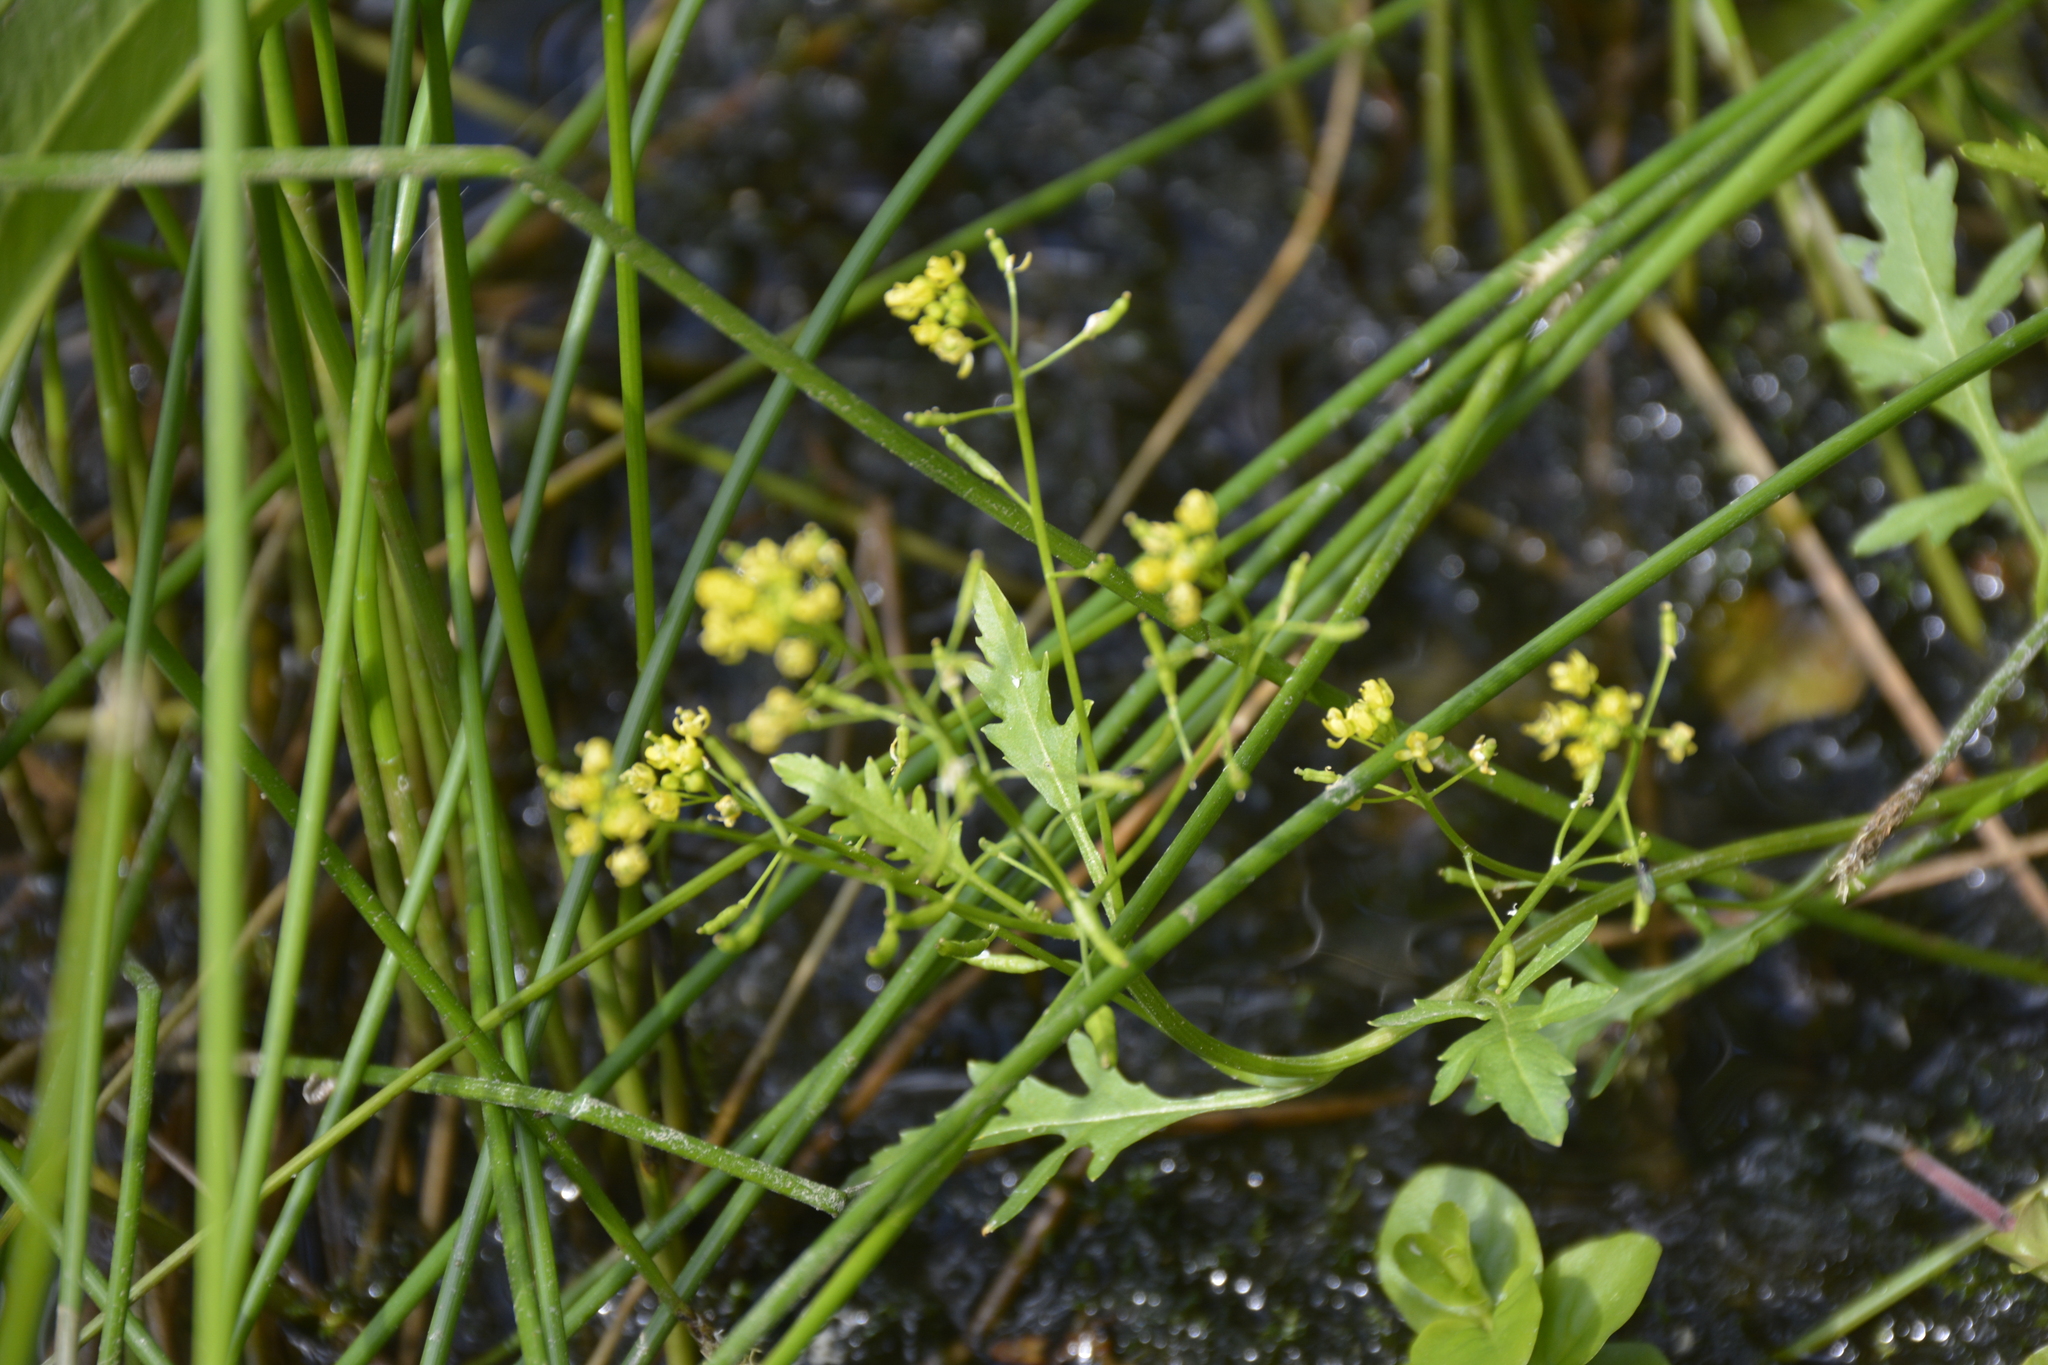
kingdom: Plantae
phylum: Tracheophyta
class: Magnoliopsida
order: Brassicales
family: Brassicaceae
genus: Rorippa
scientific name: Rorippa palustris
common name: Marsh yellow-cress
